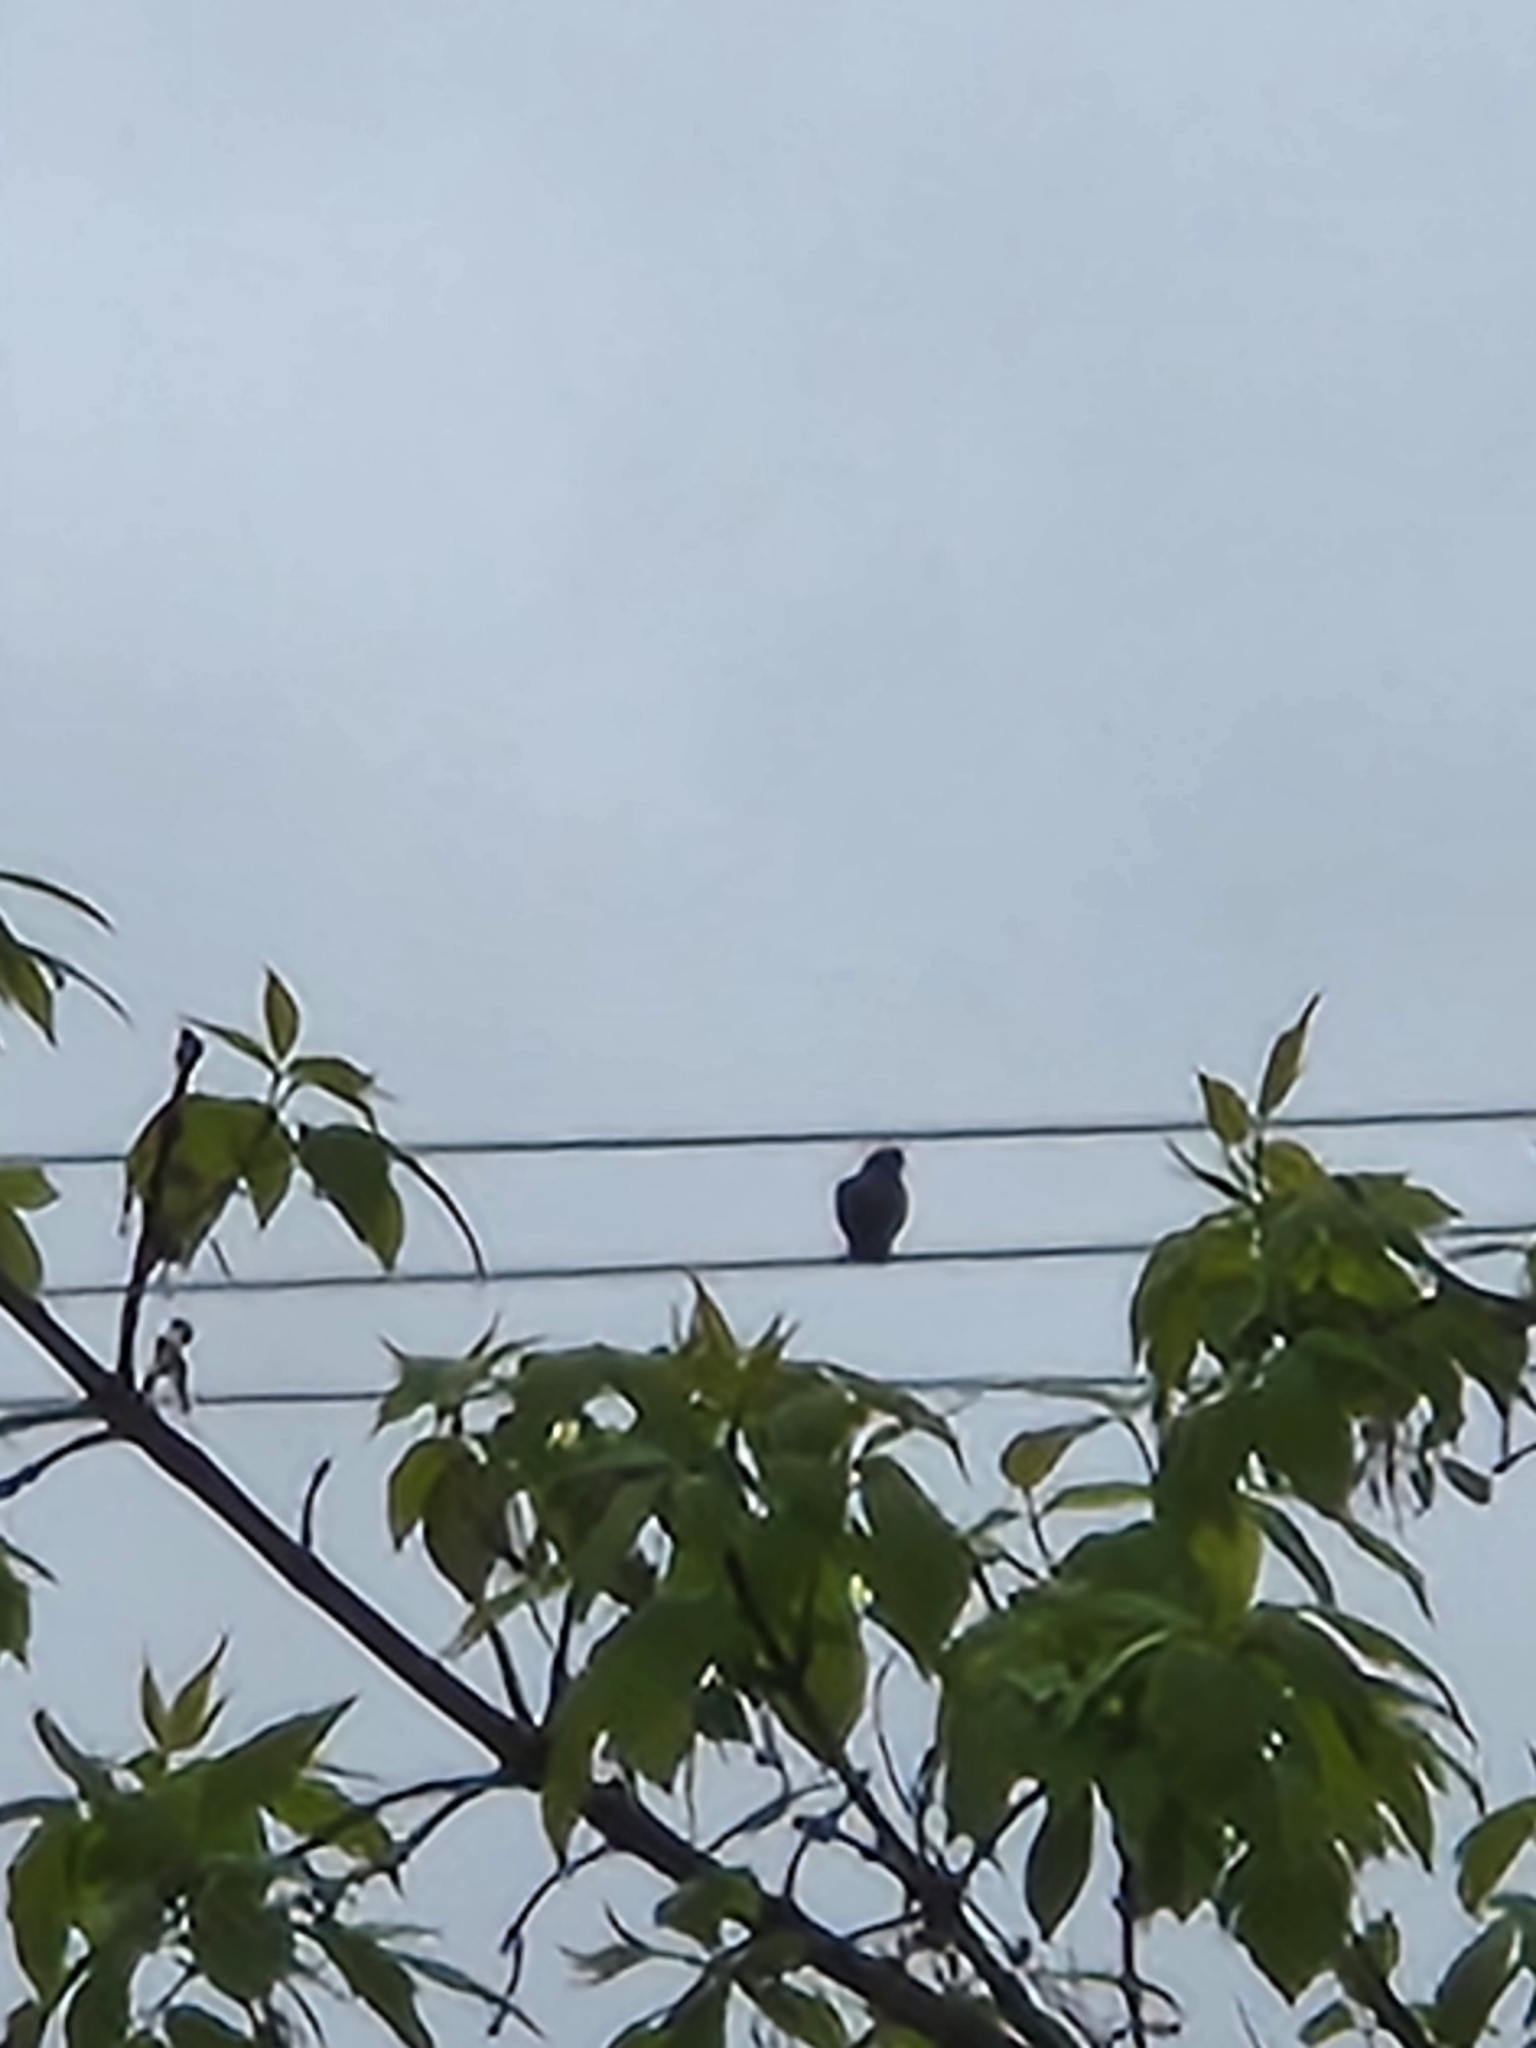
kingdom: Animalia
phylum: Chordata
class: Aves
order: Columbiformes
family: Columbidae
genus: Columba
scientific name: Columba livia
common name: Rock pigeon
